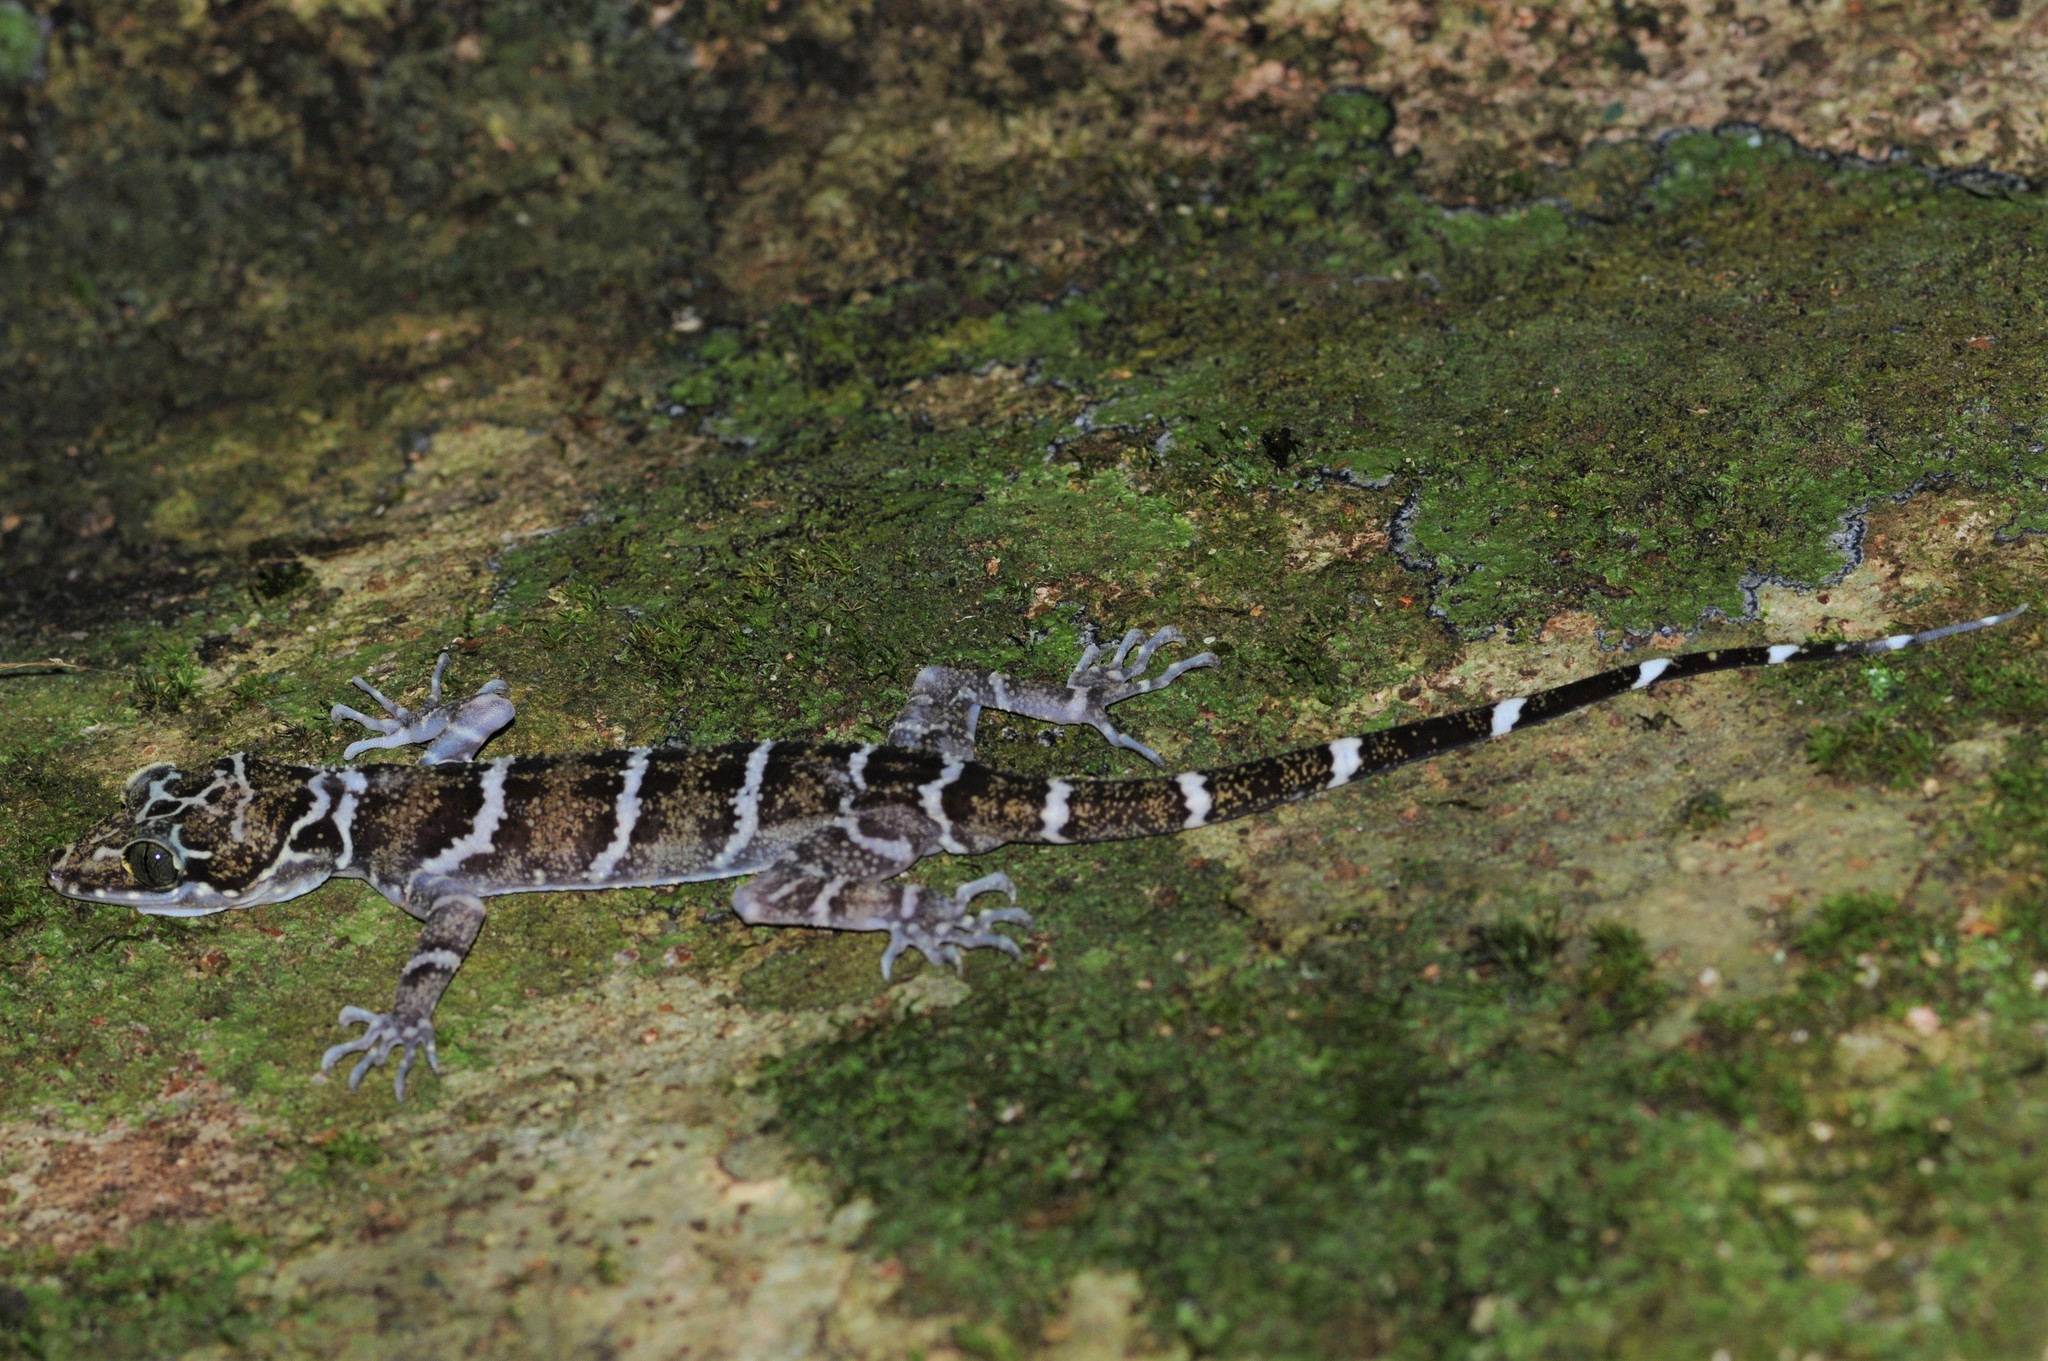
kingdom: Animalia
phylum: Chordata
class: Squamata
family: Gekkonidae
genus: Cyrtodactylus
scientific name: Cyrtodactylus consobrinus
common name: Banded forest gecko
